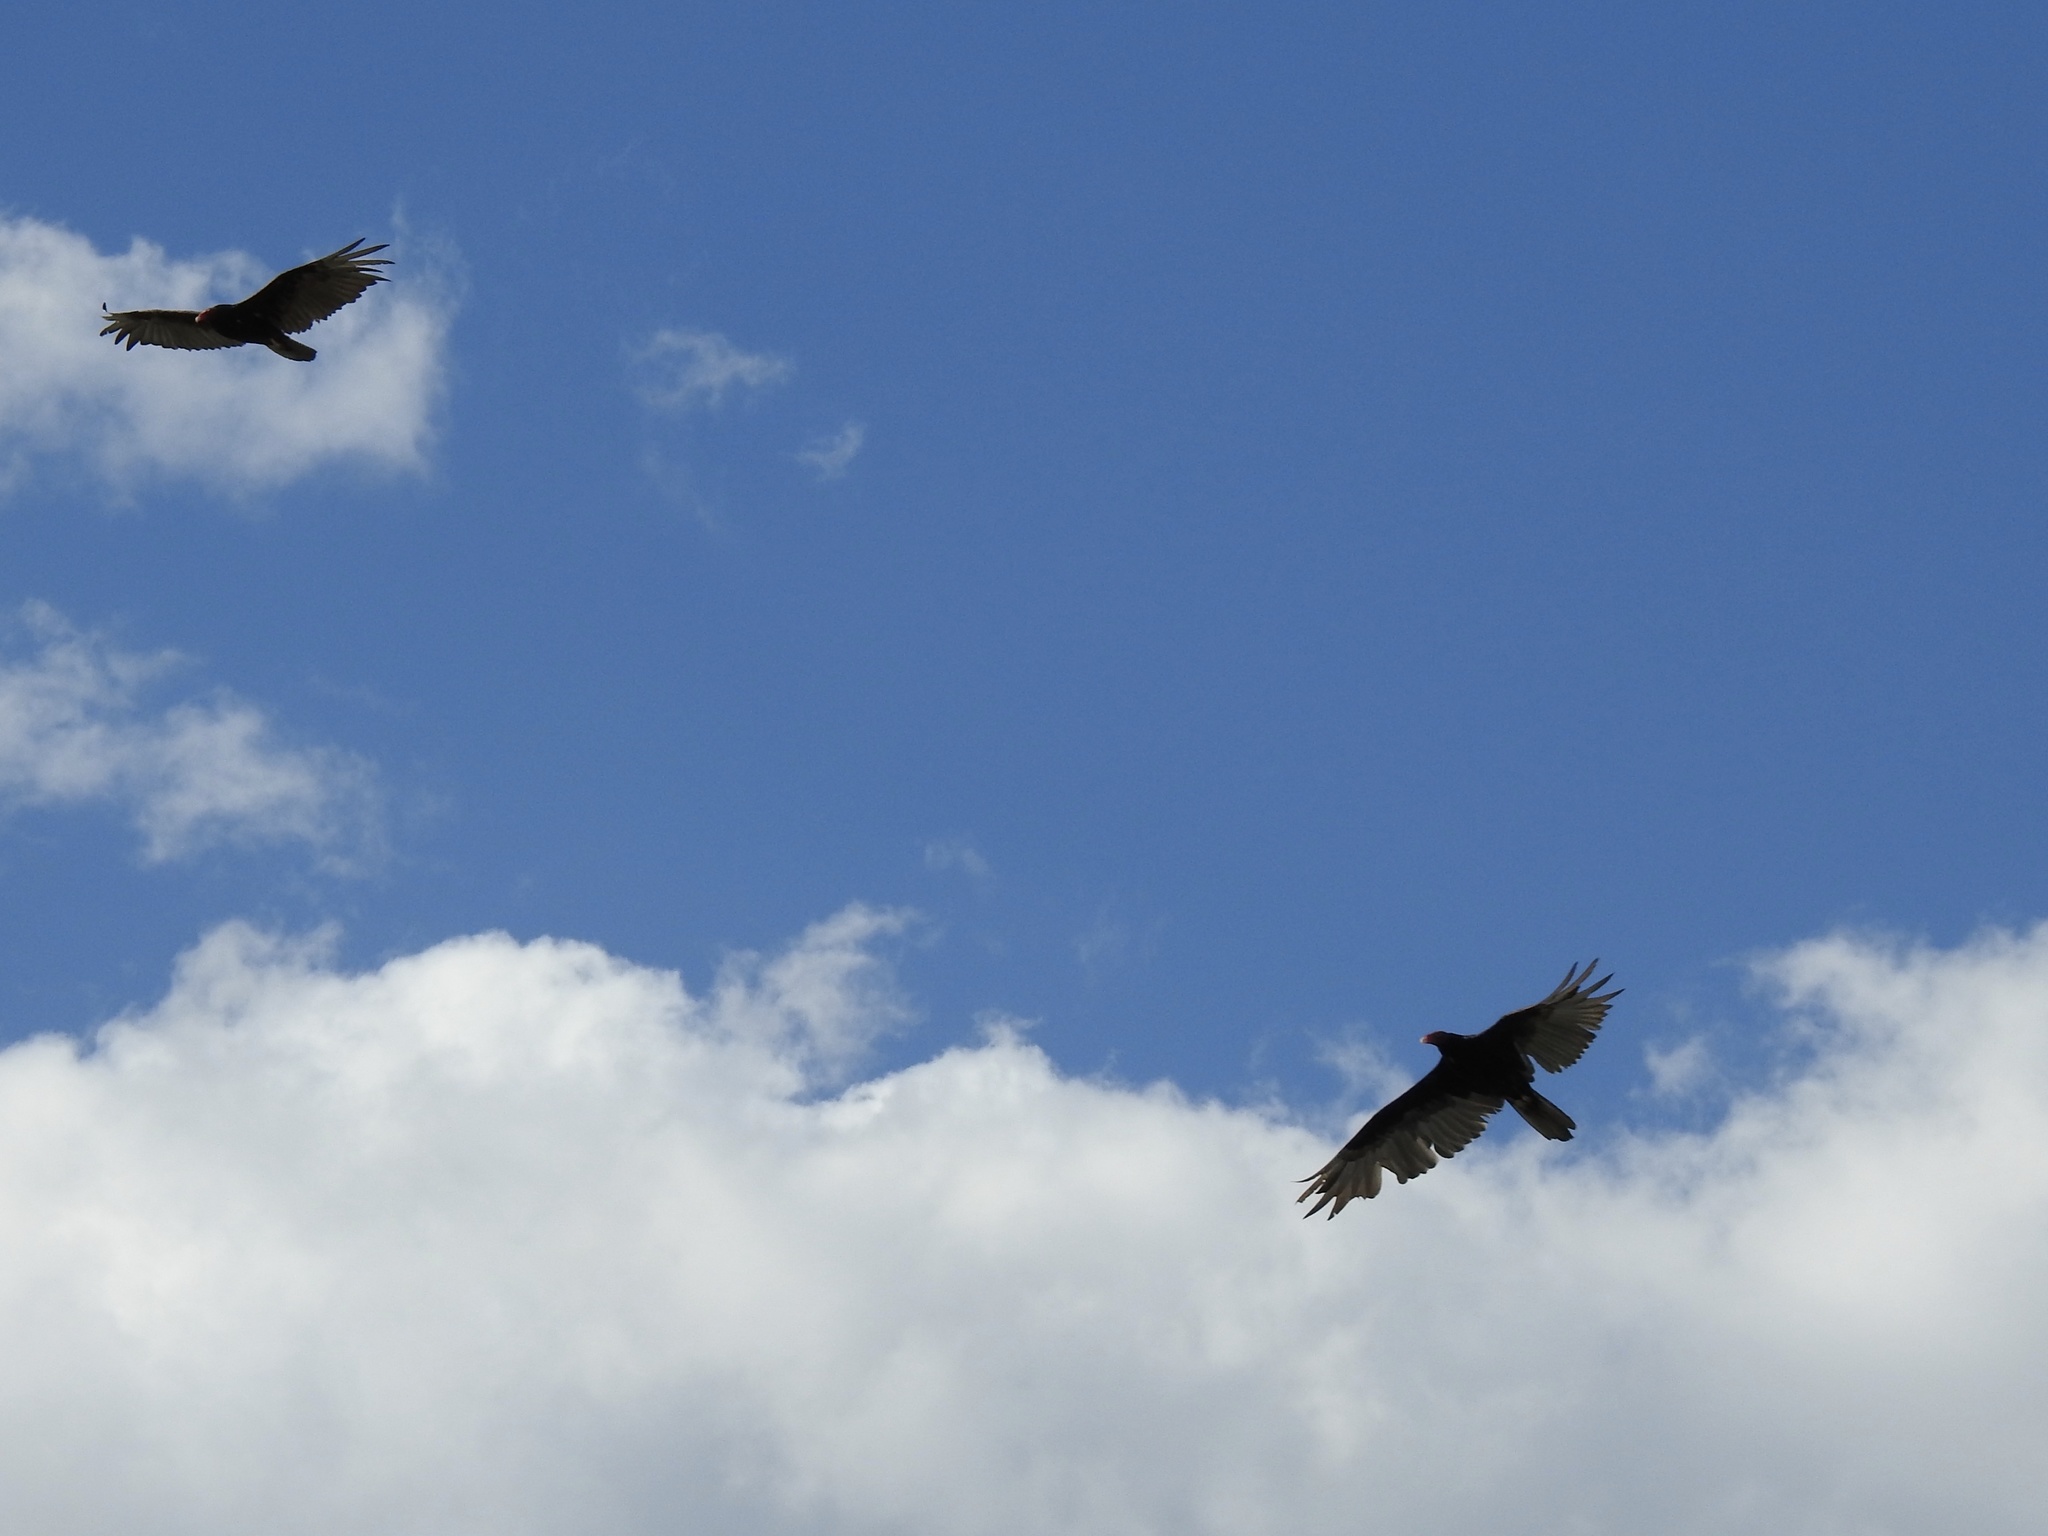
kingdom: Animalia
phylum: Chordata
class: Aves
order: Accipitriformes
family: Cathartidae
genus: Cathartes
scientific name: Cathartes aura
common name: Turkey vulture
